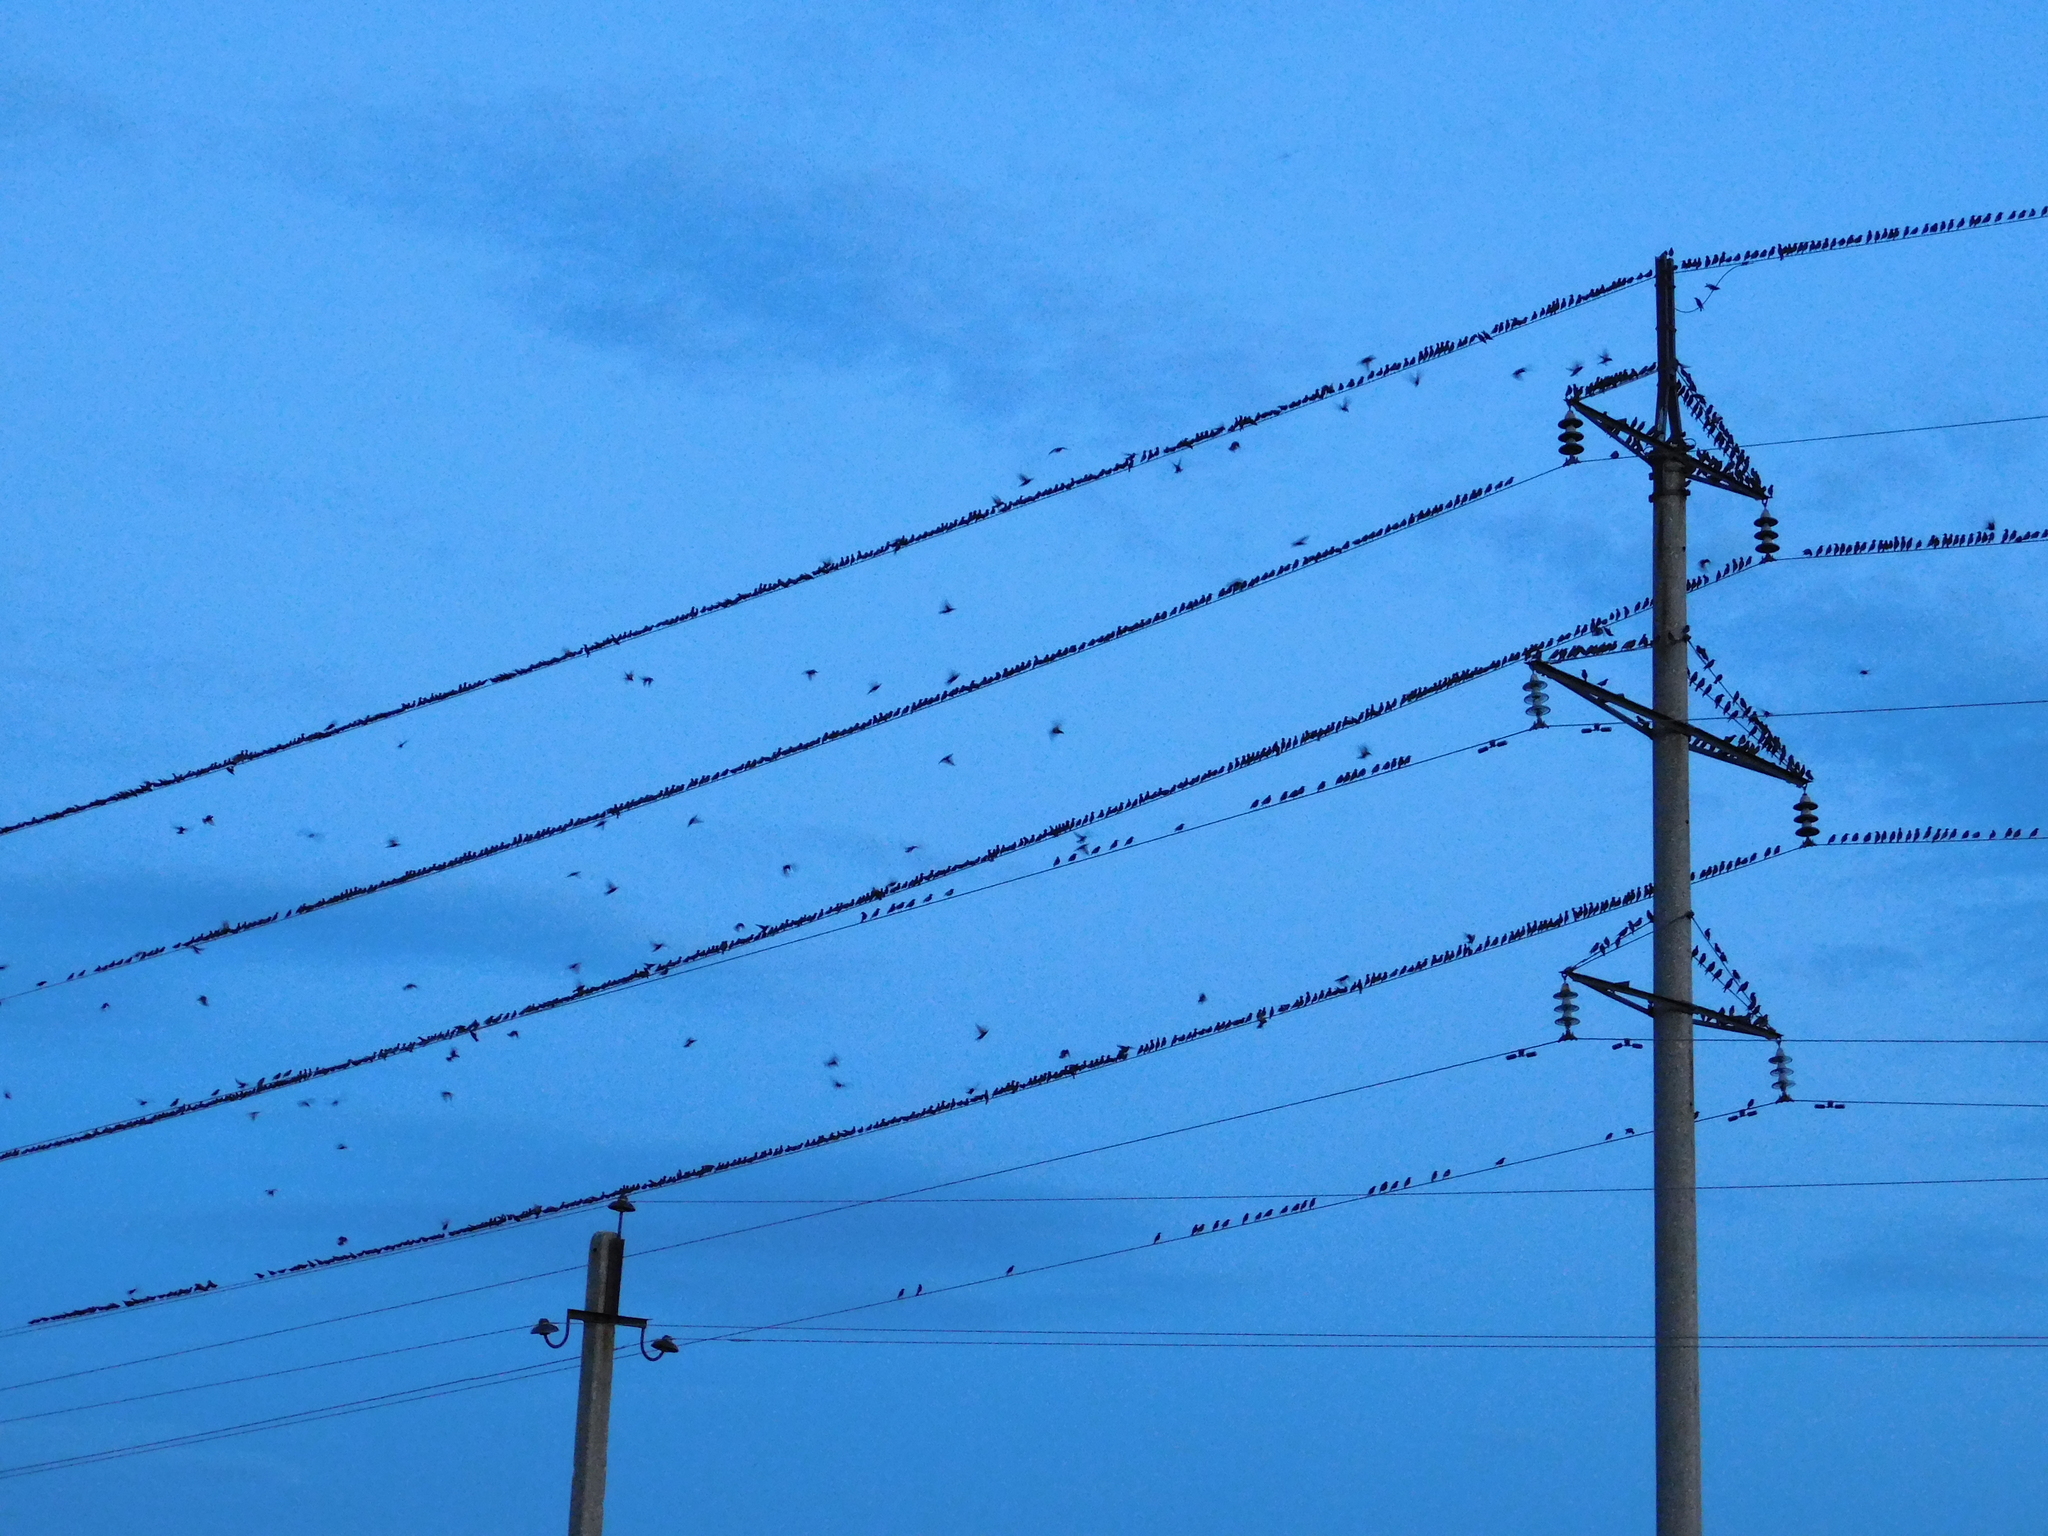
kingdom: Animalia
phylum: Chordata
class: Aves
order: Passeriformes
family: Sturnidae
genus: Sturnus
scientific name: Sturnus vulgaris
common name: Common starling
